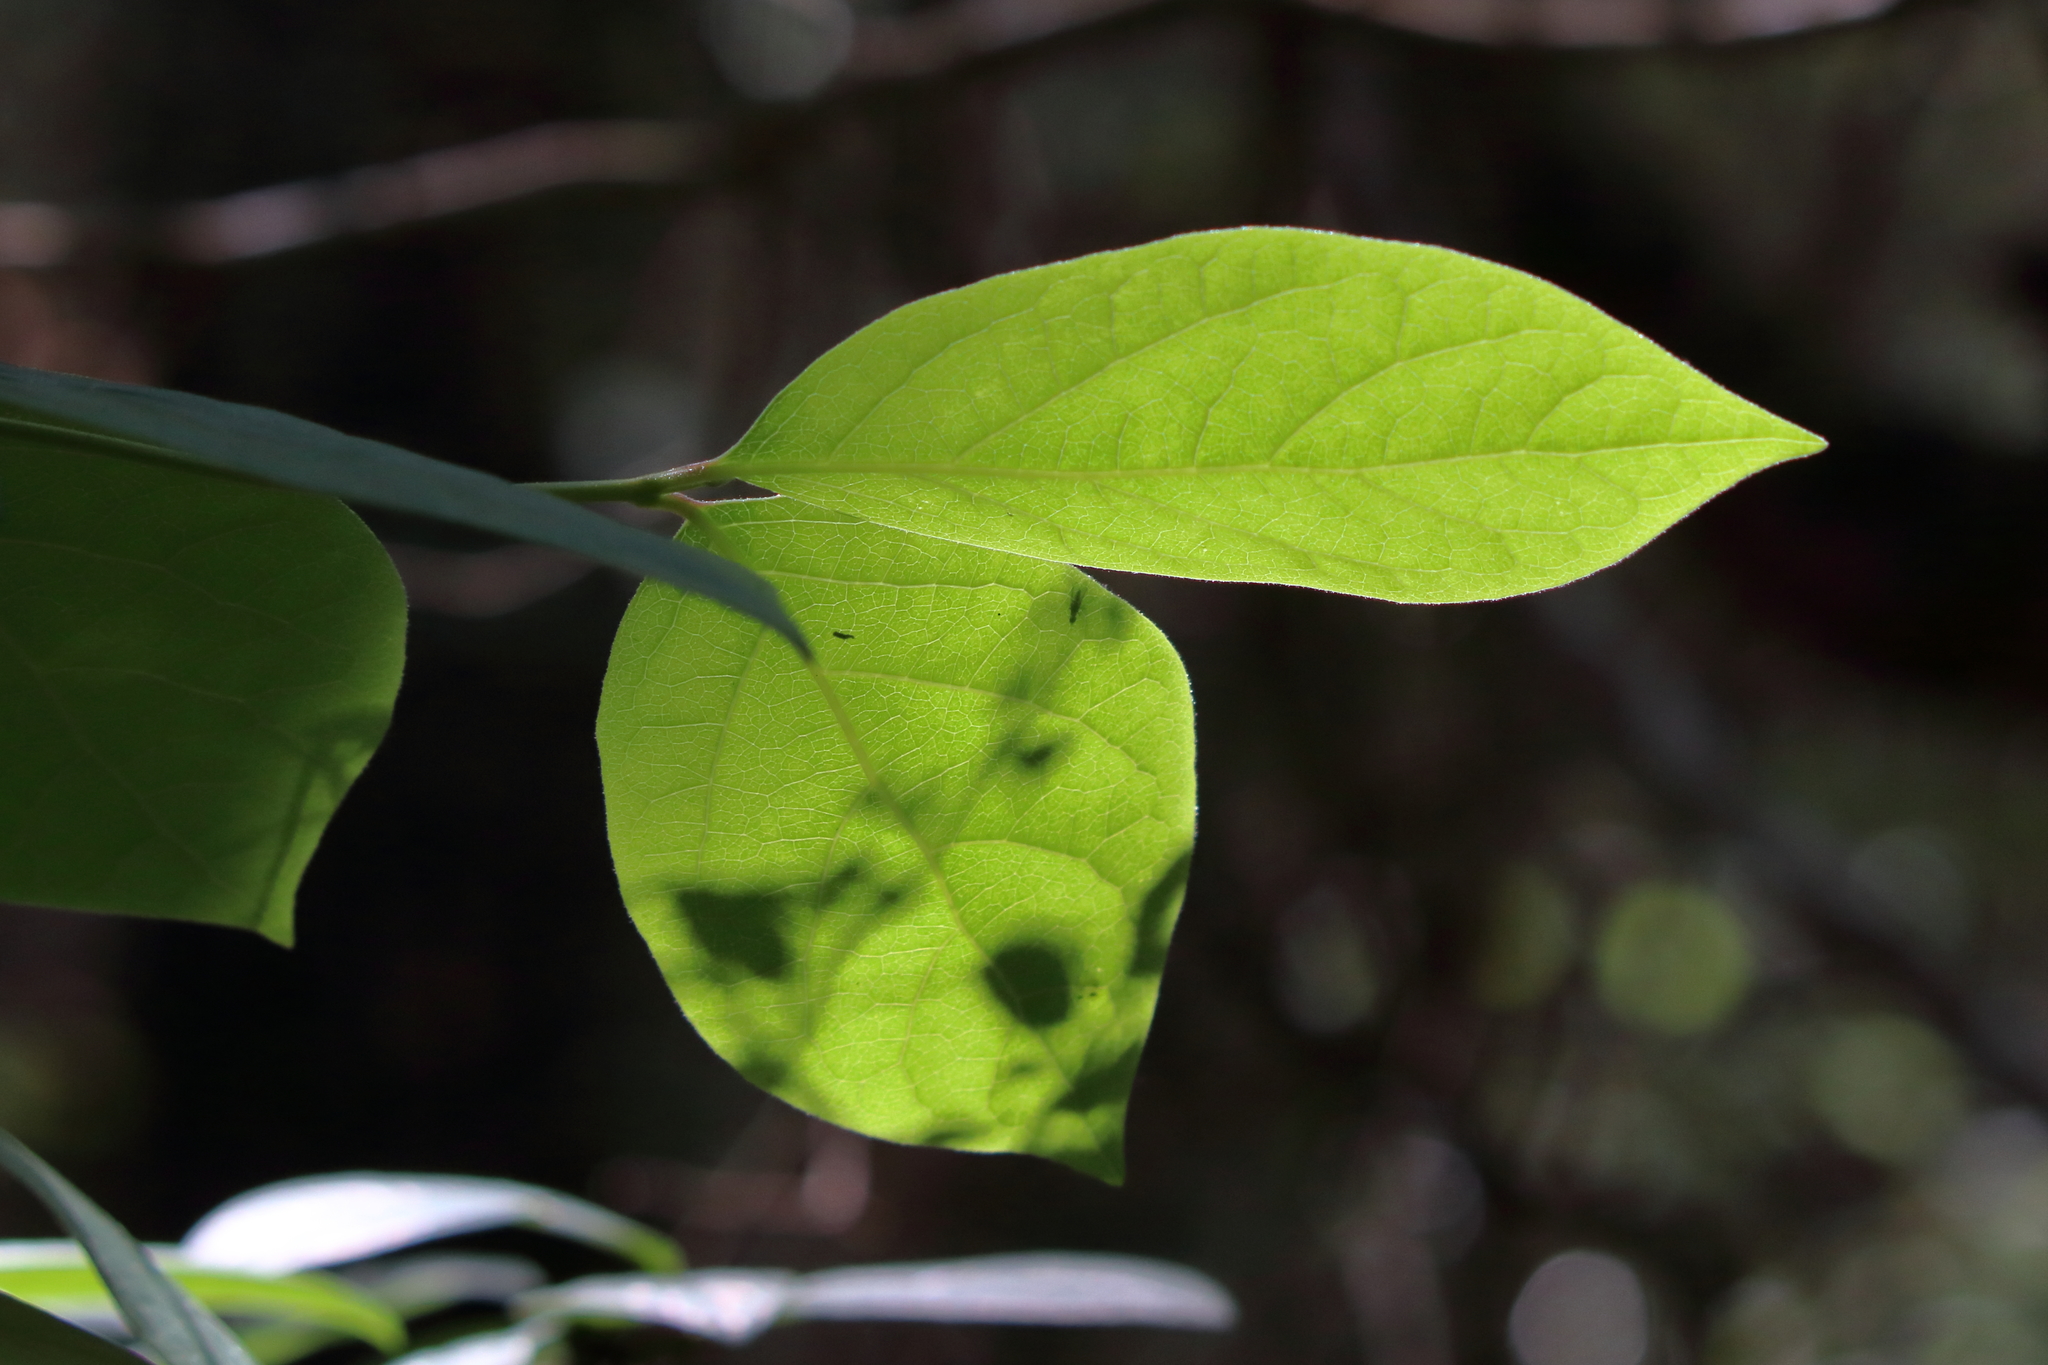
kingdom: Plantae
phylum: Tracheophyta
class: Magnoliopsida
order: Laurales
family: Calycanthaceae
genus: Calycanthus
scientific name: Calycanthus floridus
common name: Carolina-allspice
